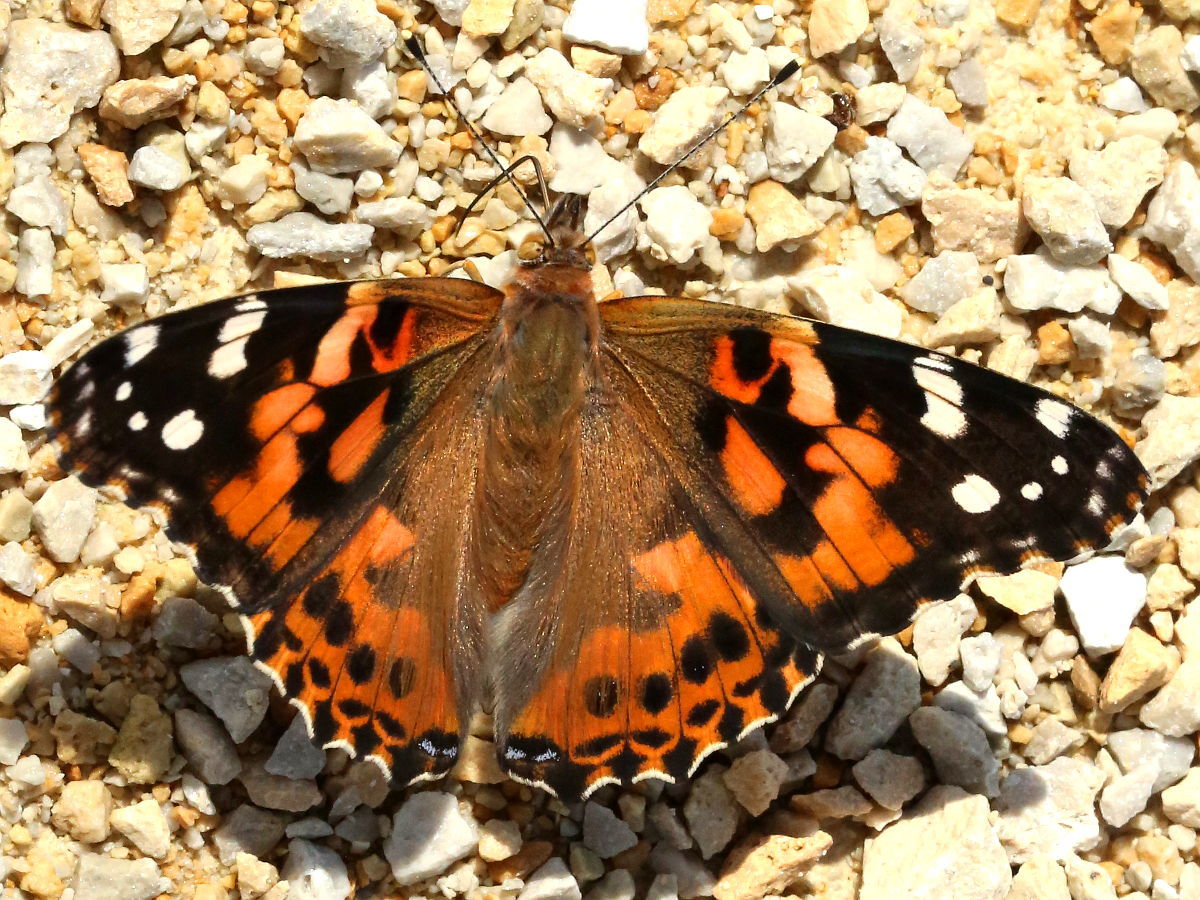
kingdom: Animalia
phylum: Arthropoda
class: Insecta
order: Lepidoptera
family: Nymphalidae
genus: Vanessa
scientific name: Vanessa cardui
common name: Painted lady
